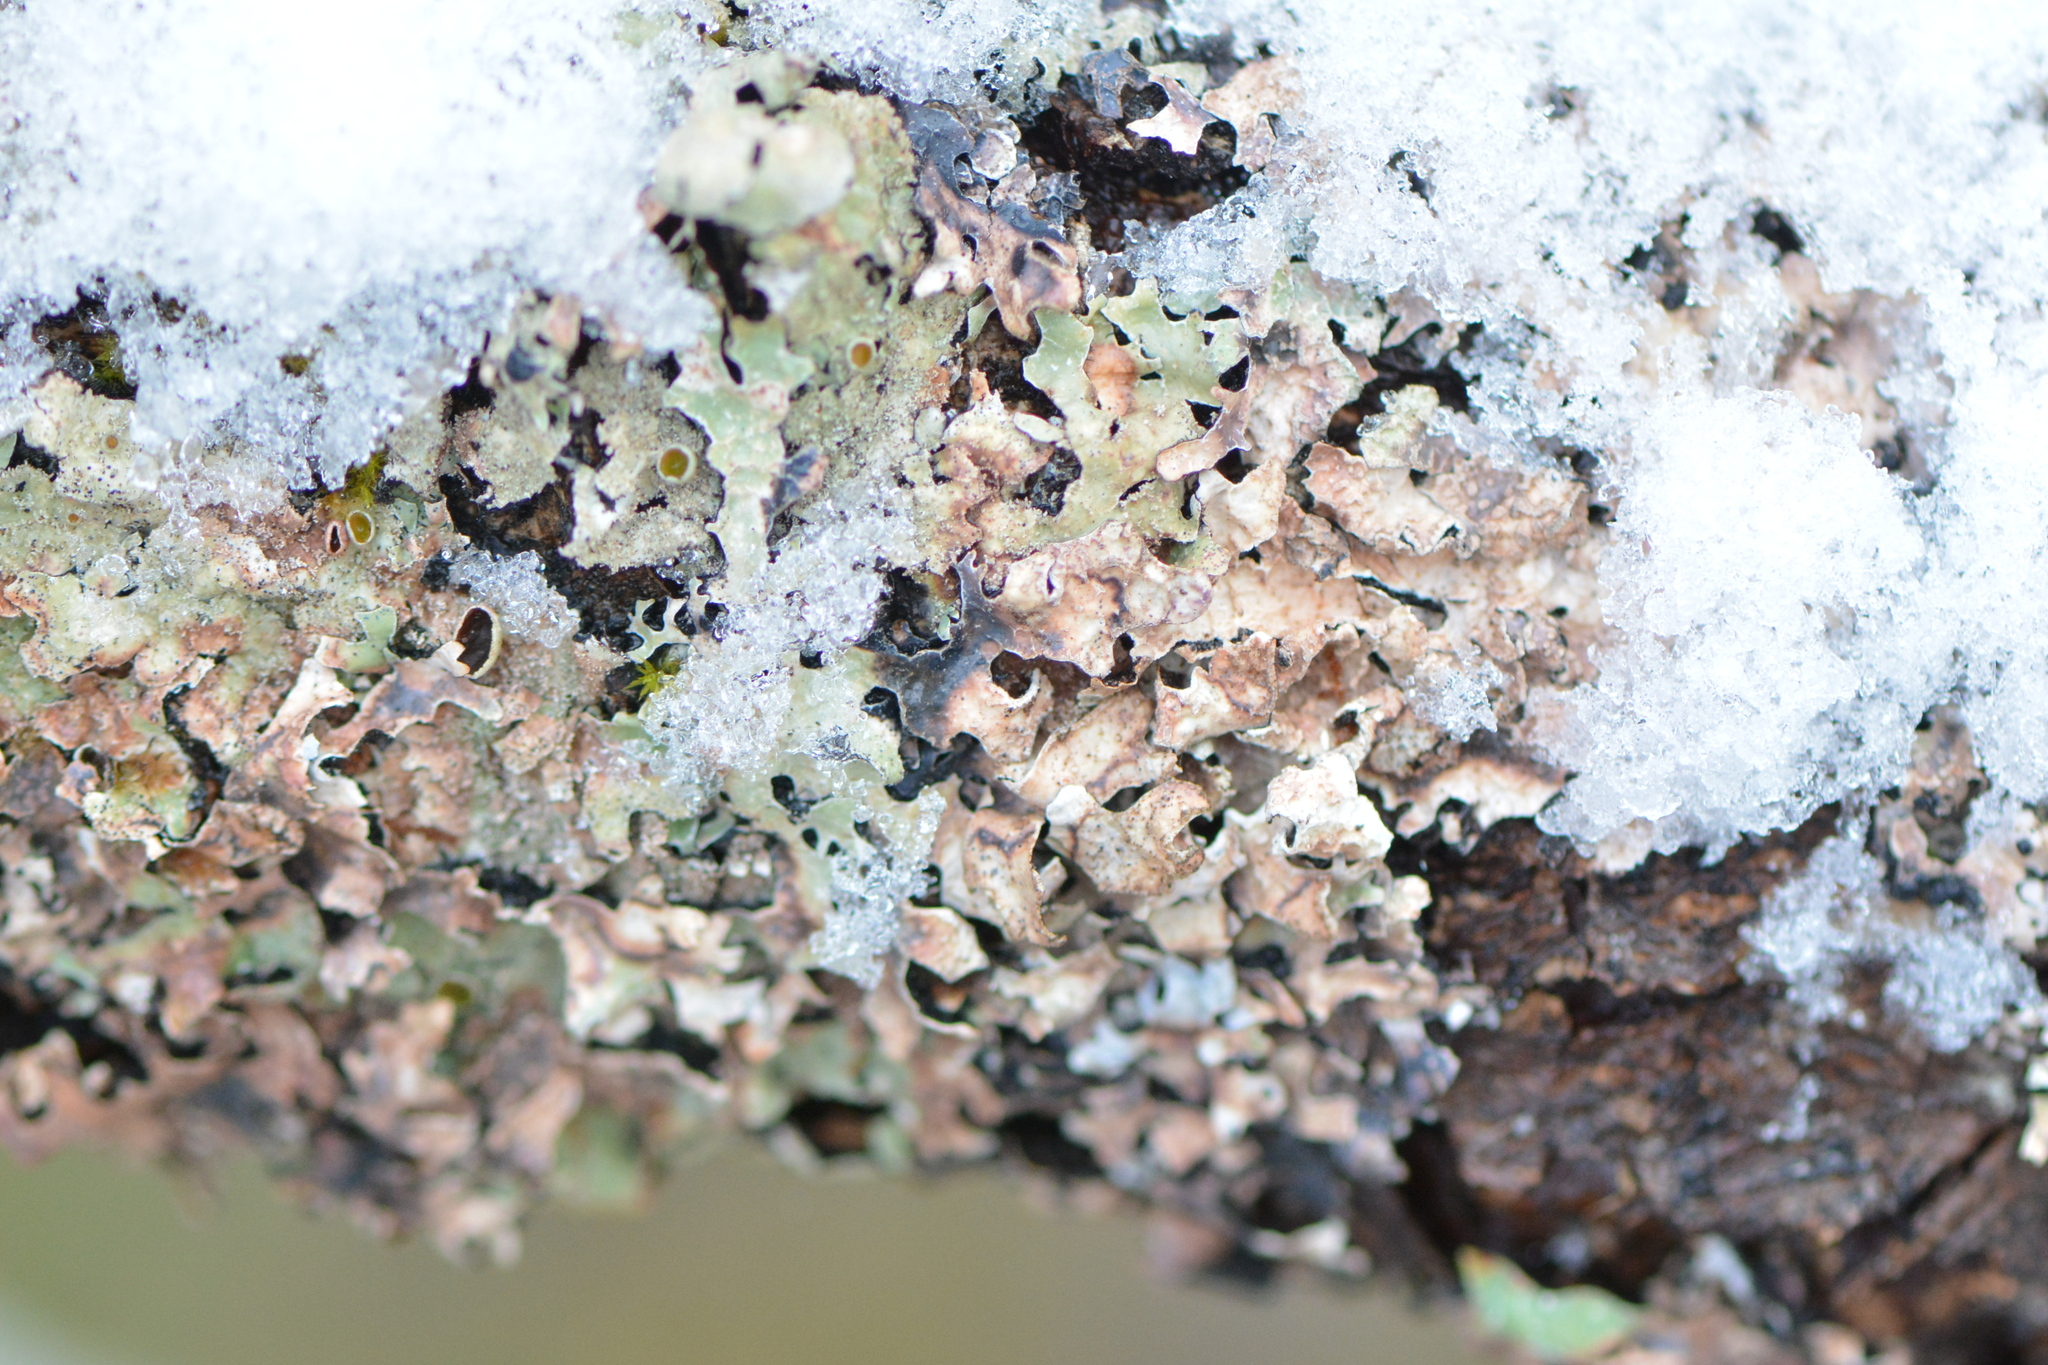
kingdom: Fungi
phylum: Ascomycota
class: Lecanoromycetes
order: Lecanorales
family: Parmeliaceae
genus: Parmelia
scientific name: Parmelia squarrosa
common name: Bottle brush shield lichen
